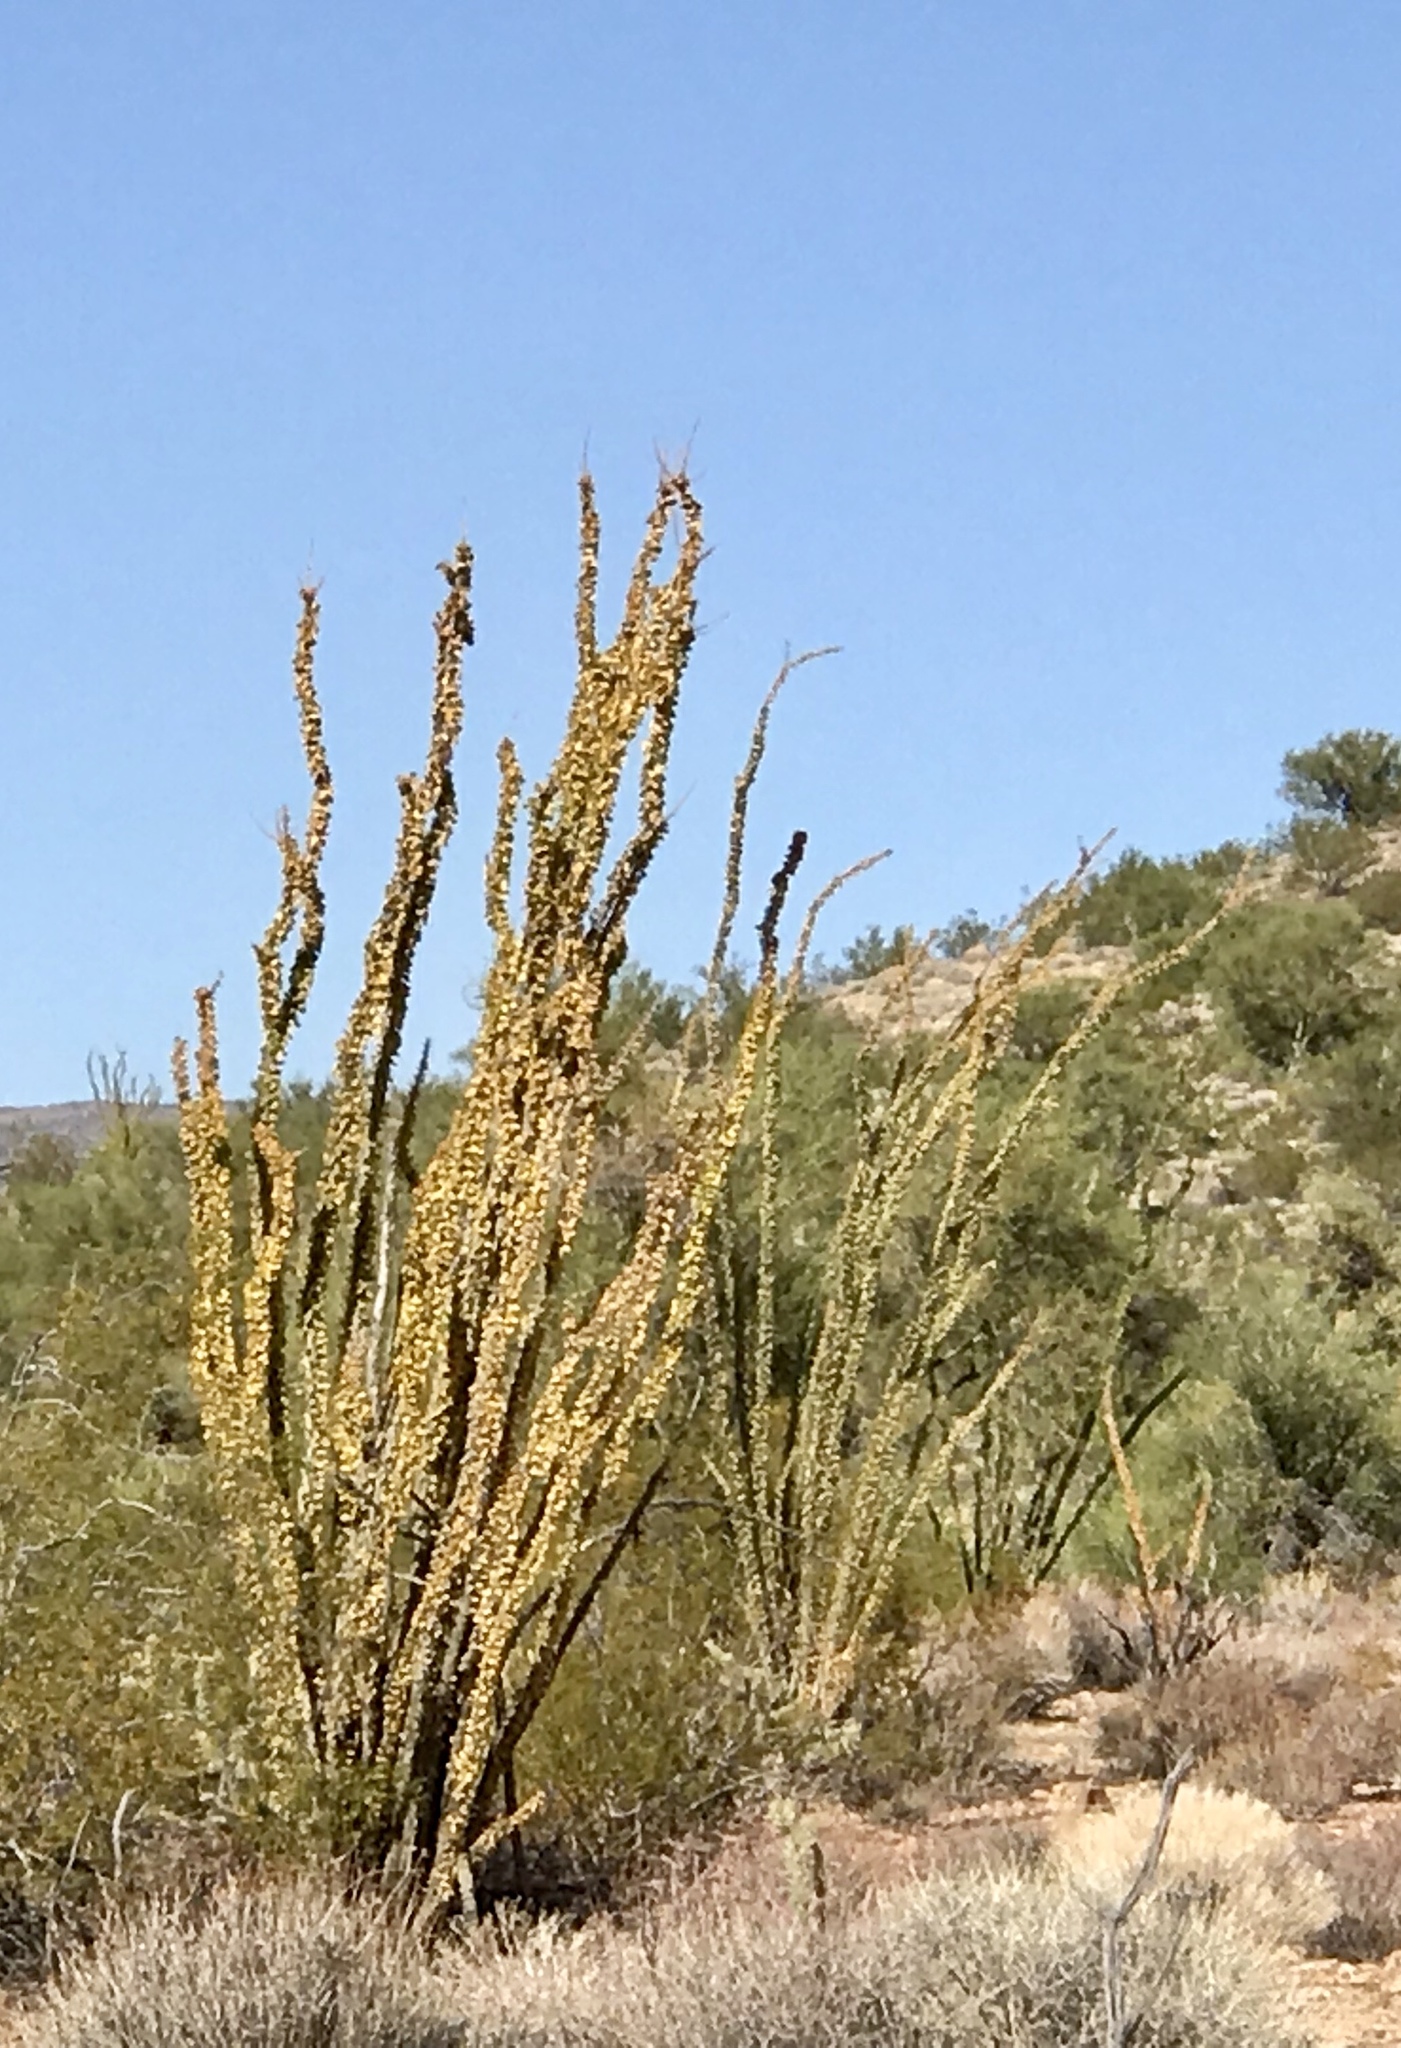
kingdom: Plantae
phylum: Tracheophyta
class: Magnoliopsida
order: Ericales
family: Fouquieriaceae
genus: Fouquieria
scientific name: Fouquieria splendens
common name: Vine-cactus
